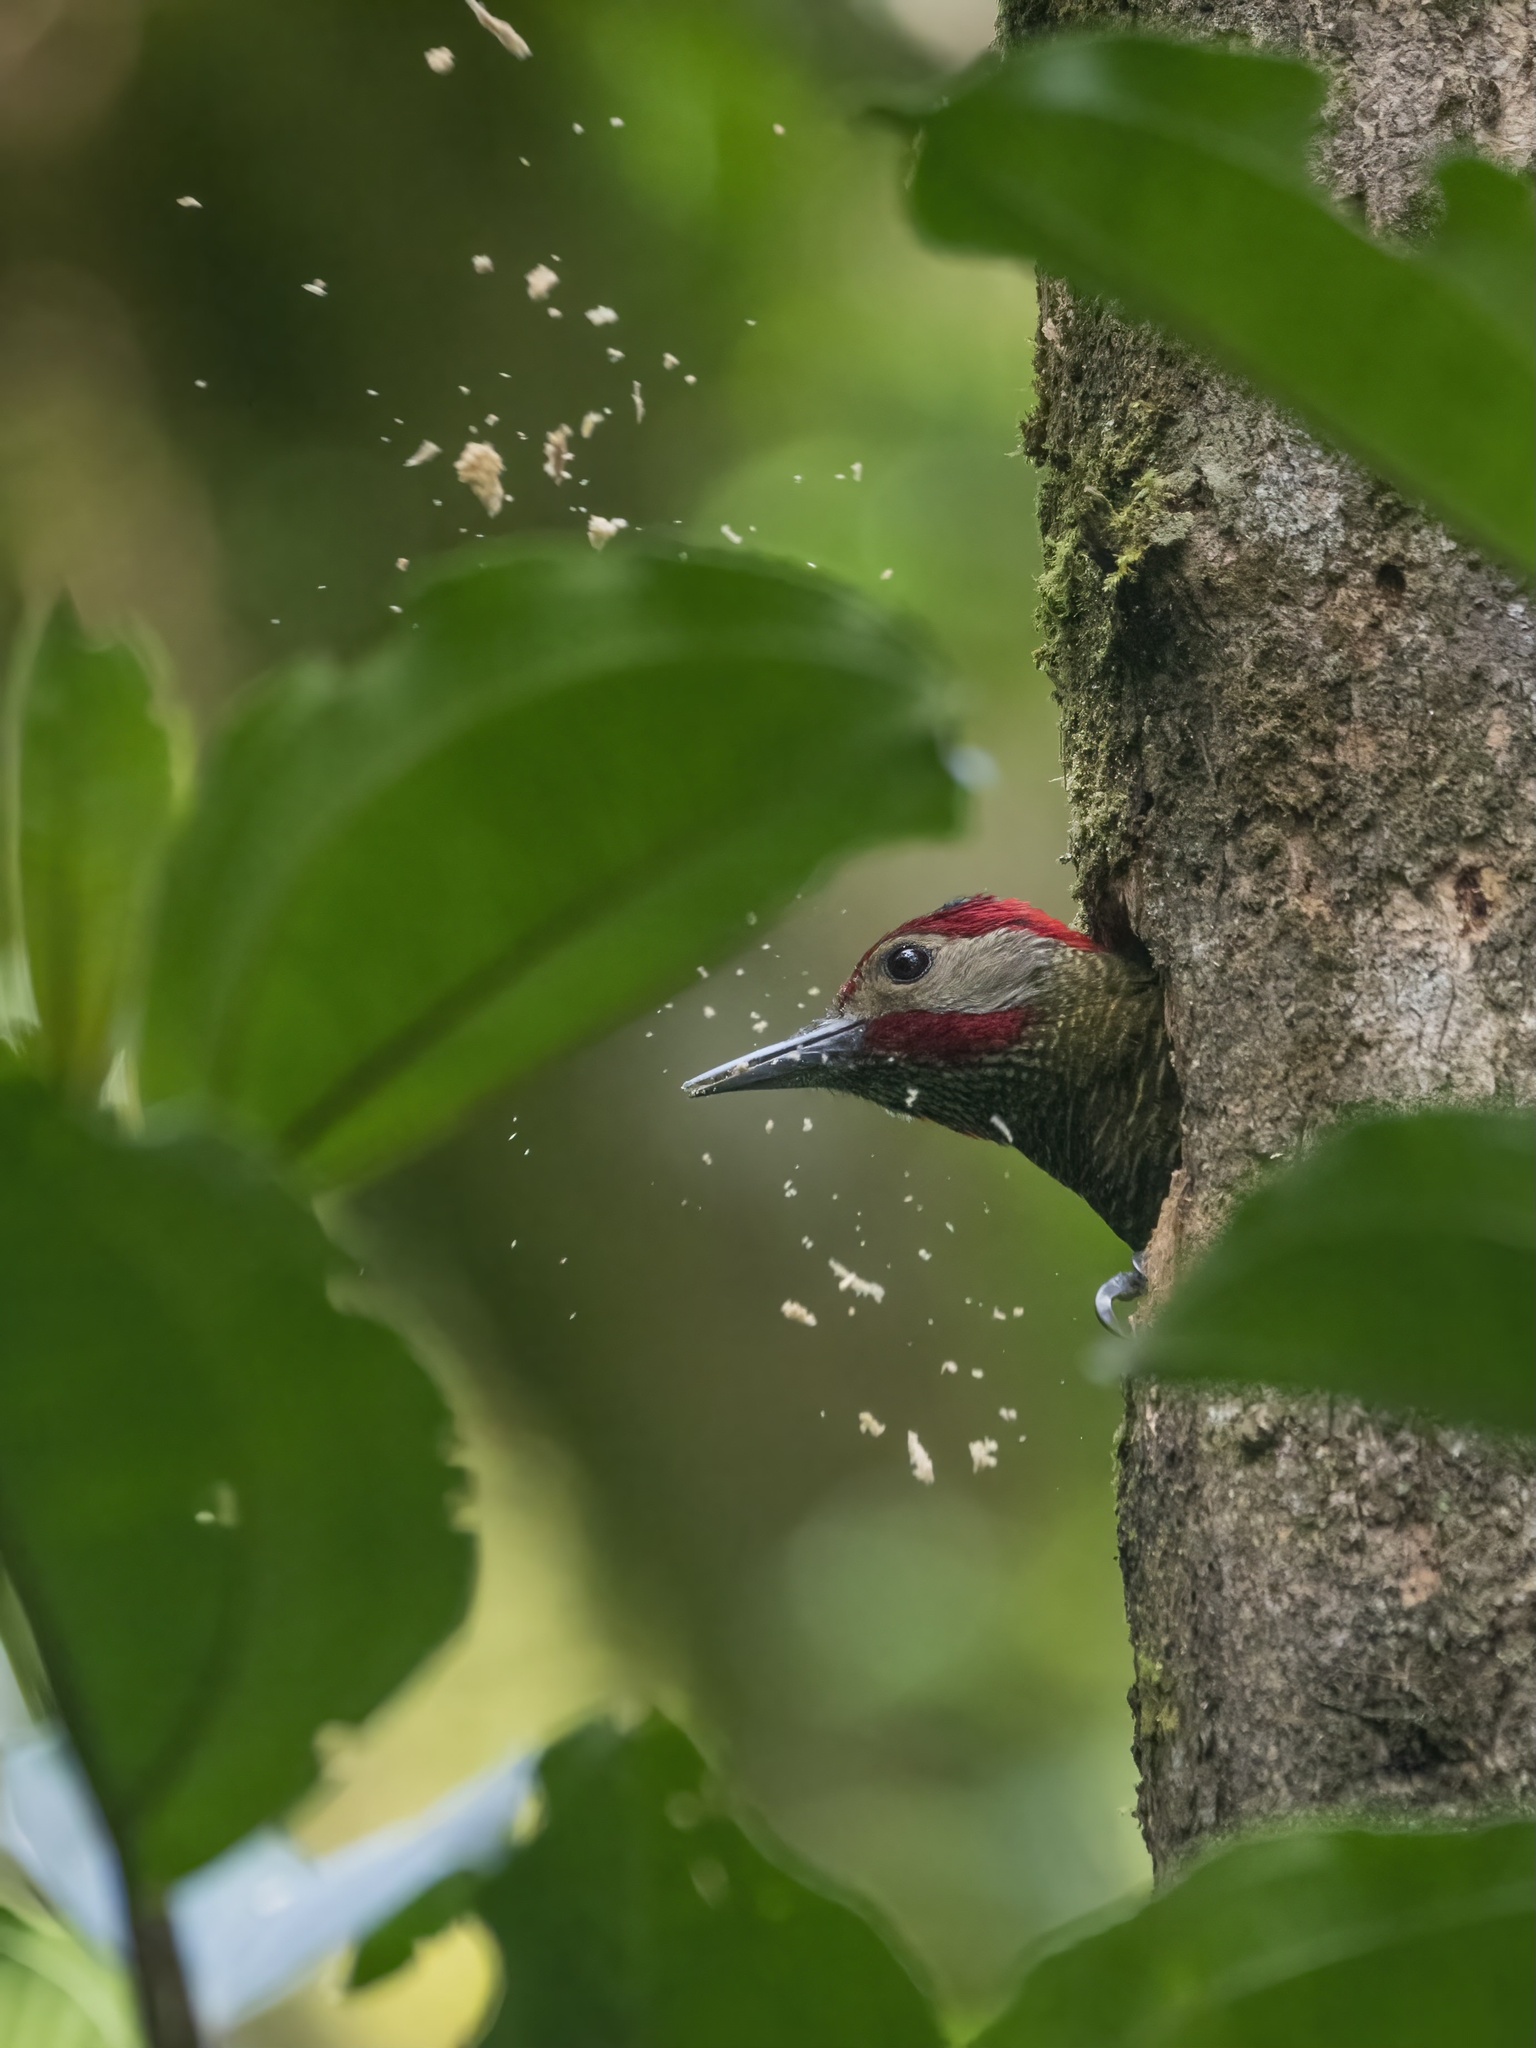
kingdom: Animalia
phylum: Chordata
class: Aves
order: Piciformes
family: Picidae
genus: Colaptes
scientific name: Colaptes rubiginosus
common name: Golden-olive woodpecker
